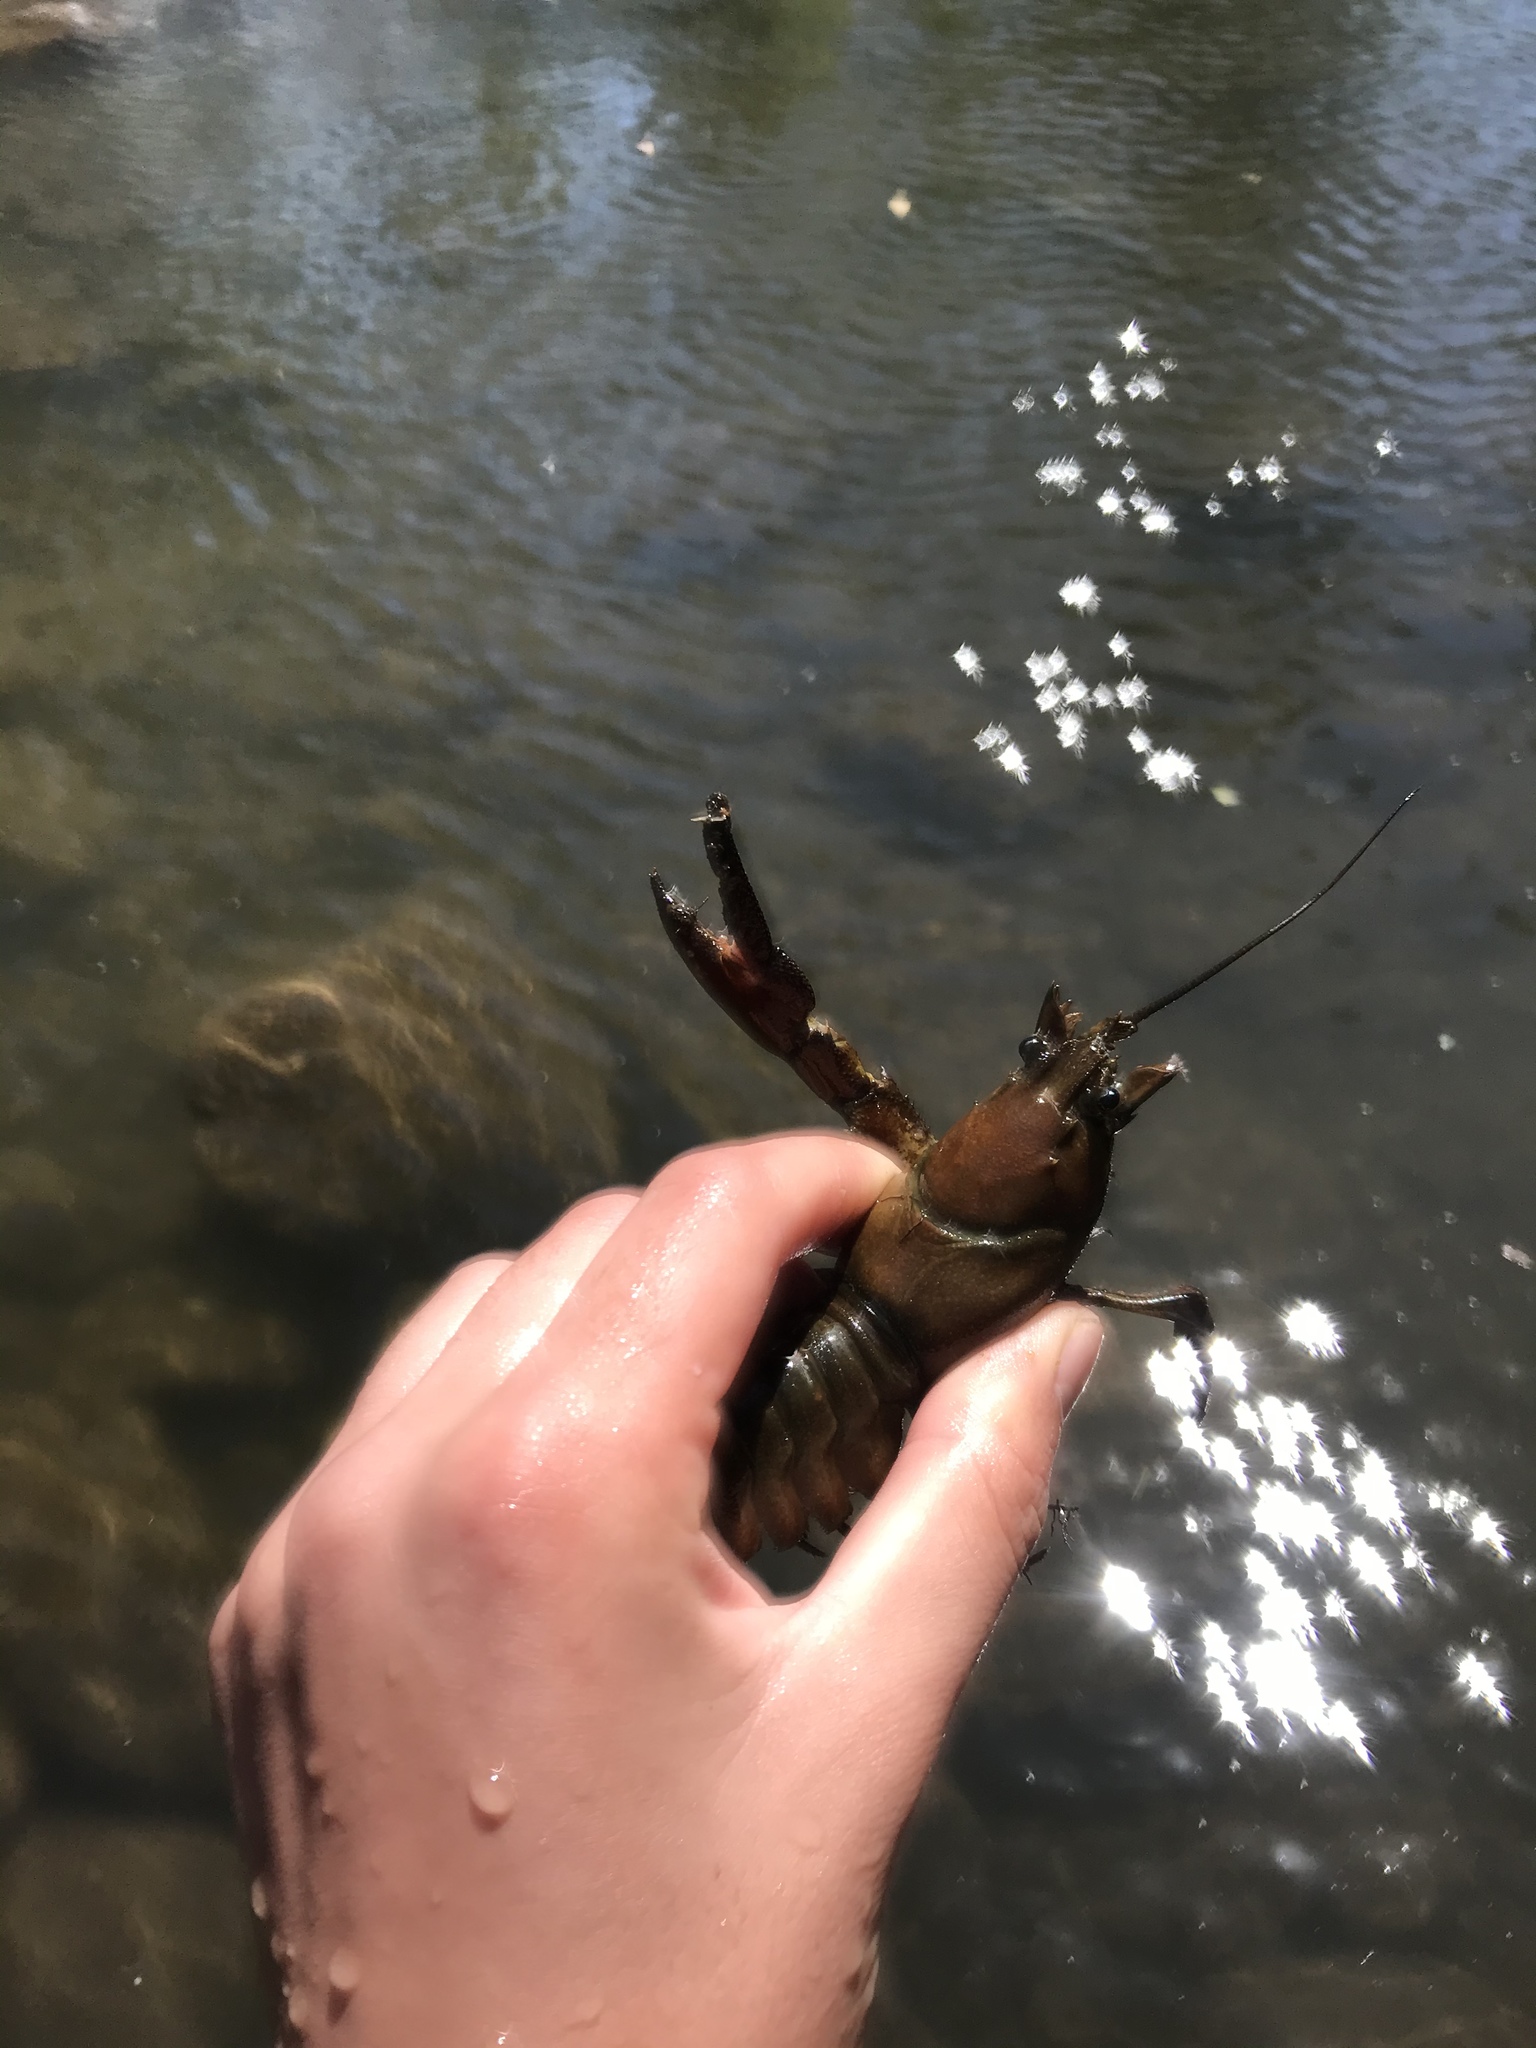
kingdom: Animalia
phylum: Arthropoda
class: Malacostraca
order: Decapoda
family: Astacidae
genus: Pacifastacus
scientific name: Pacifastacus leniusculus
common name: Signal crayfish
